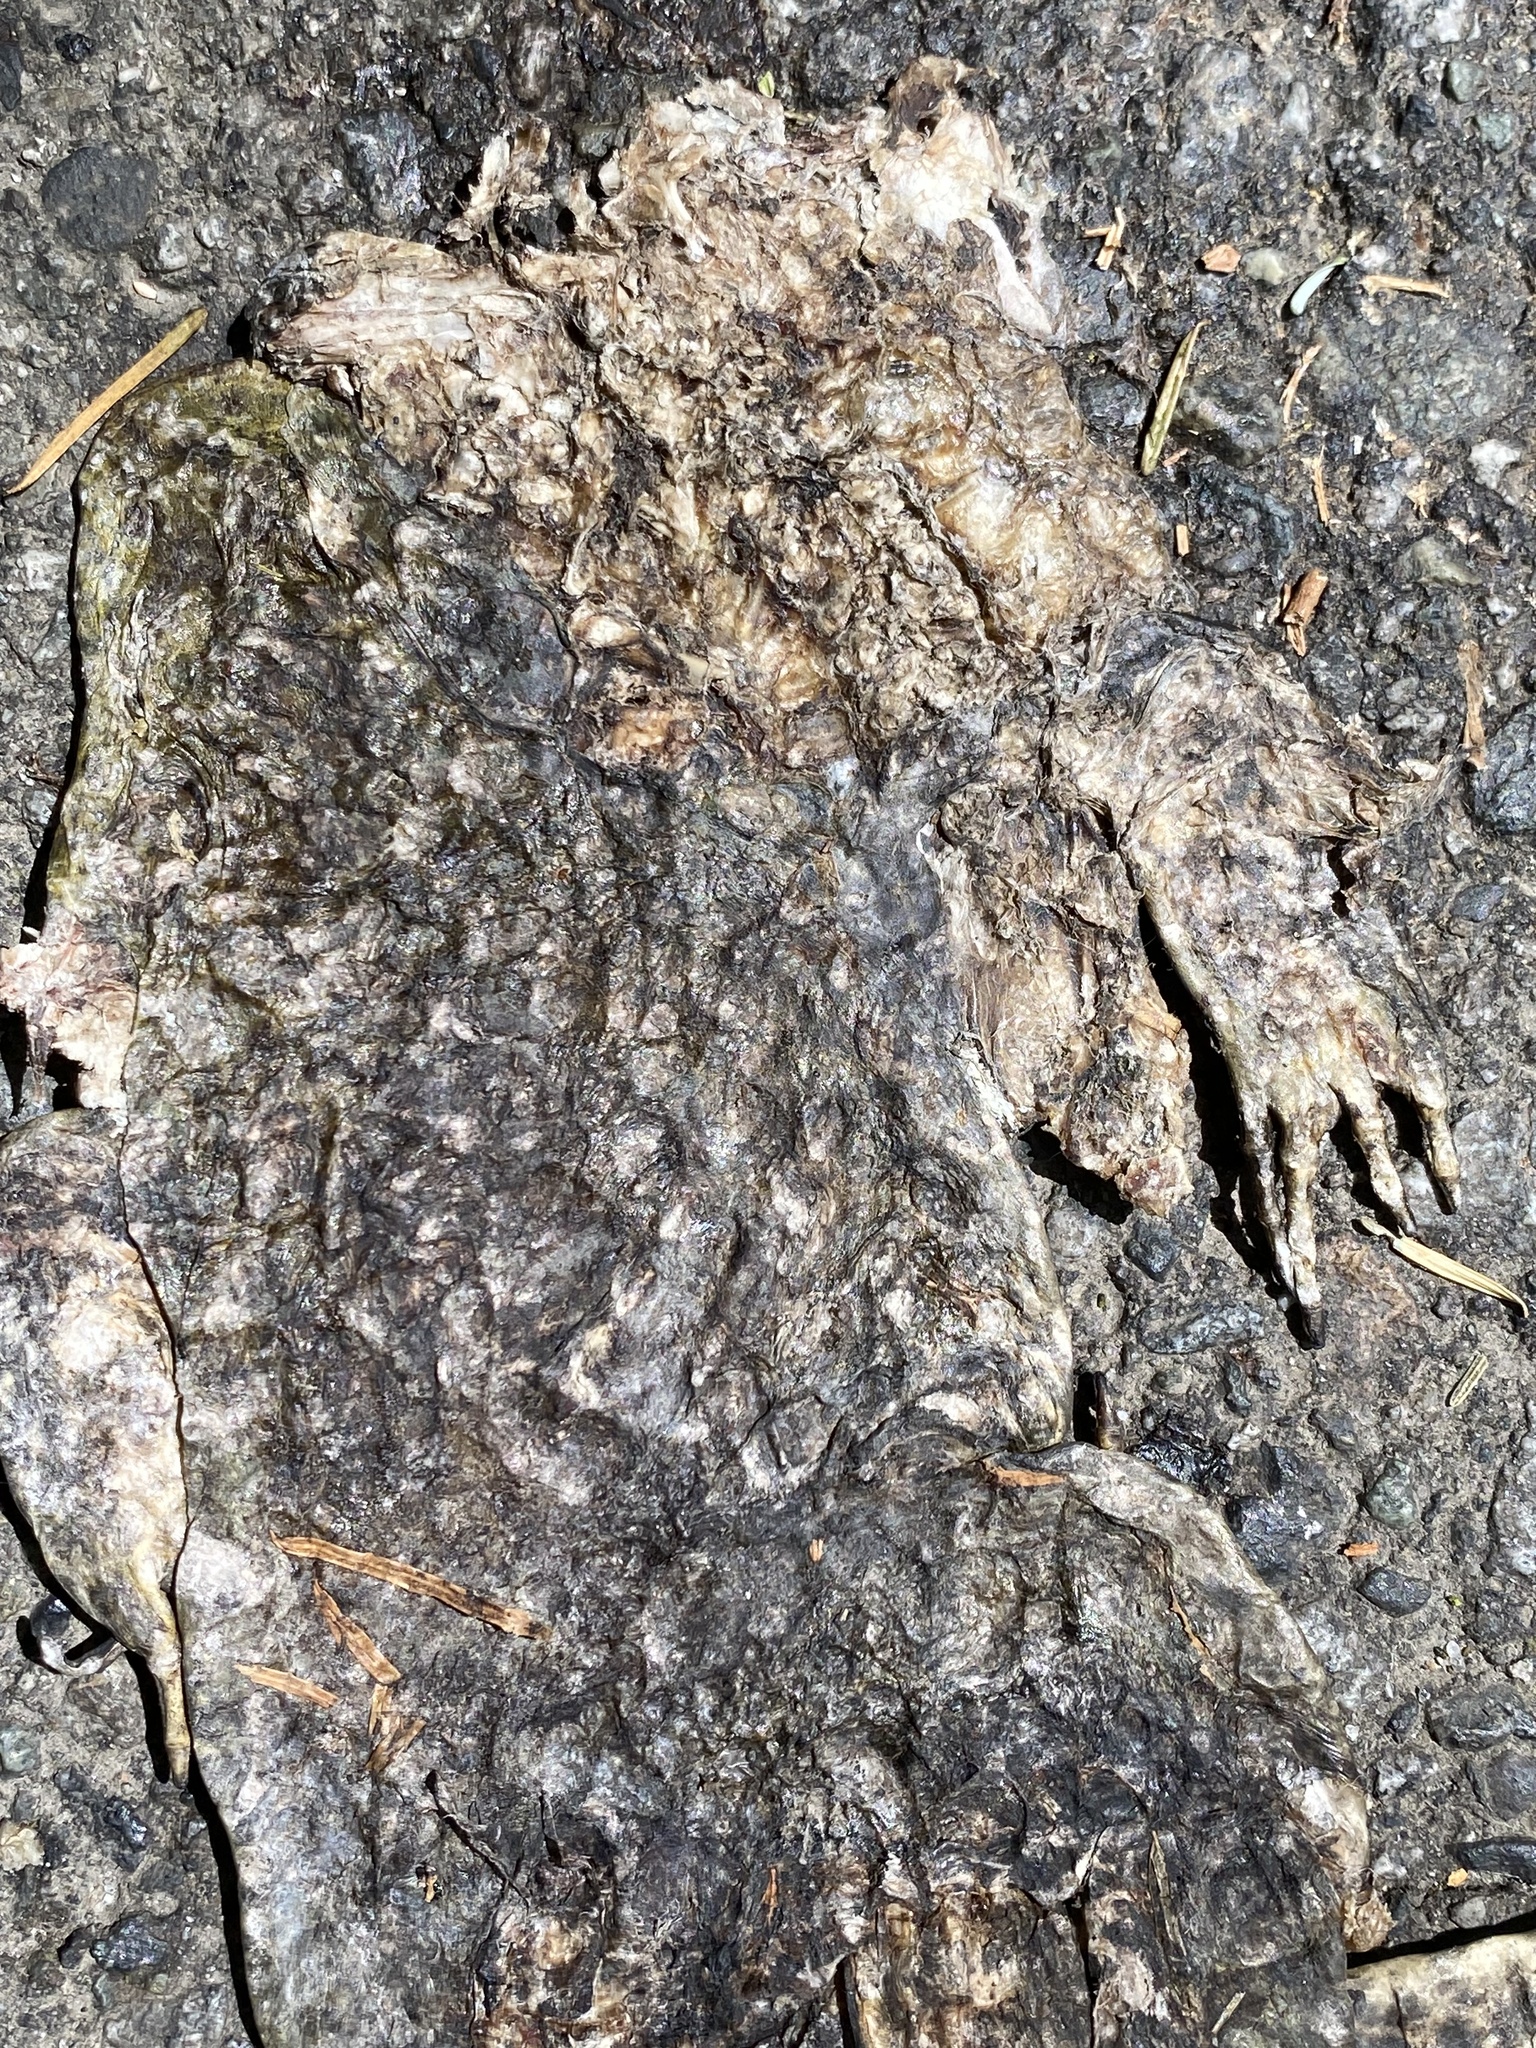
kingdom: Animalia
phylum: Chordata
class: Amphibia
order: Anura
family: Bufonidae
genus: Anaxyrus
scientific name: Anaxyrus boreas
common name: Western toad
